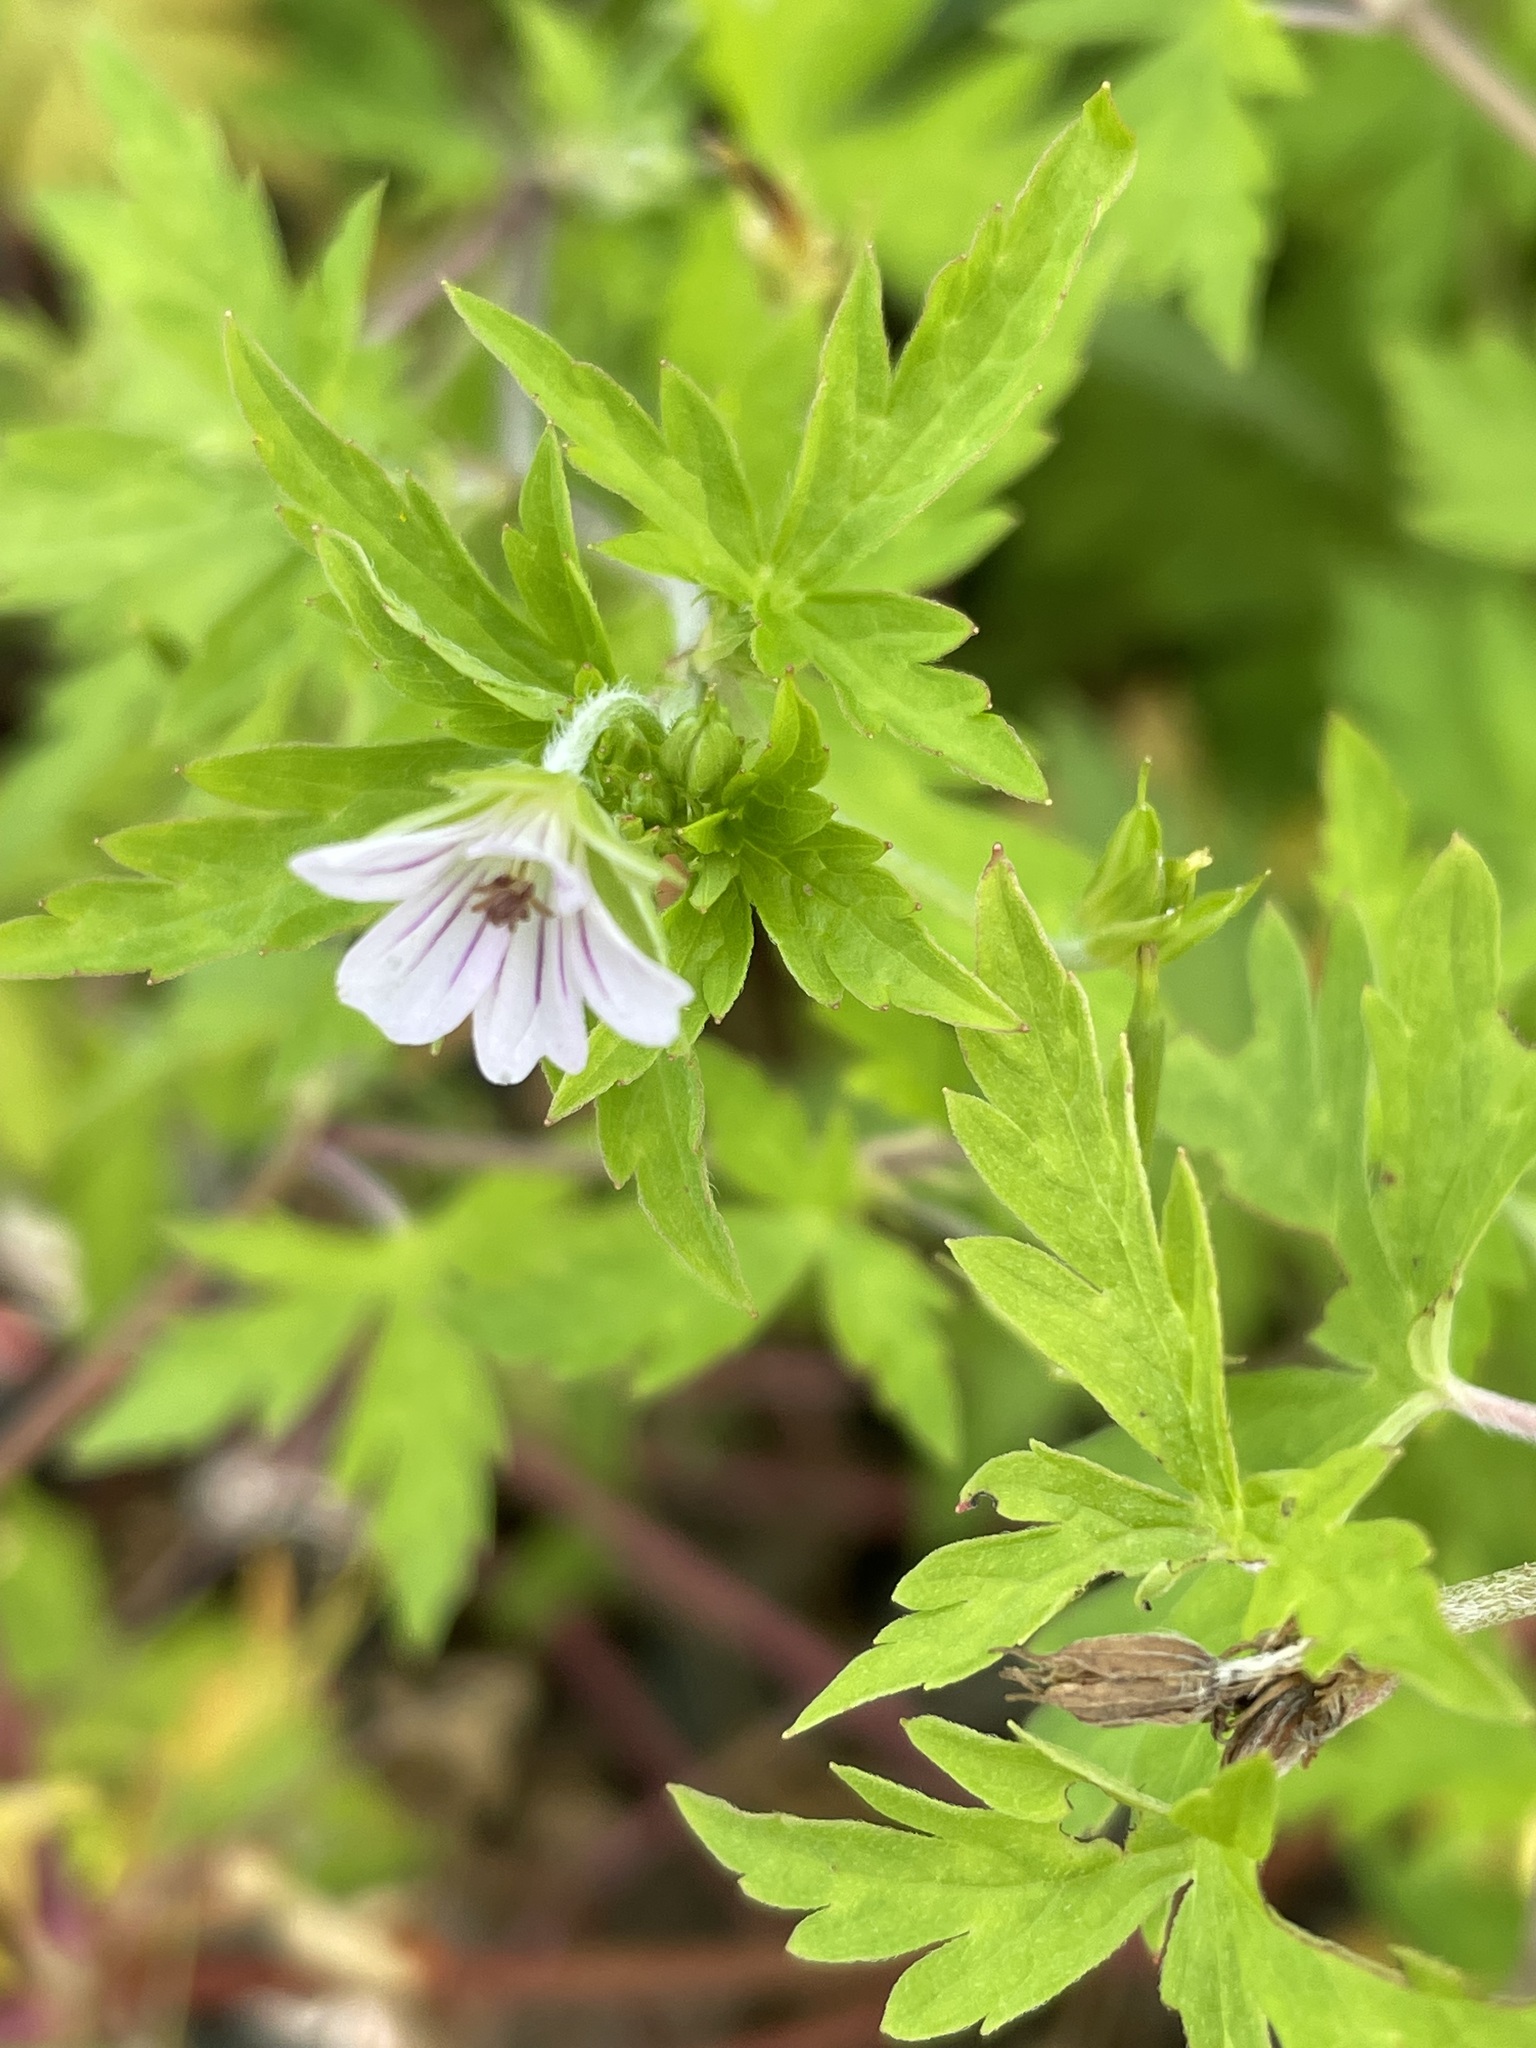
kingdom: Plantae
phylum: Tracheophyta
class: Magnoliopsida
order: Geraniales
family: Geraniaceae
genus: Geranium
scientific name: Geranium sibiricum
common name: Siberian crane's-bill
